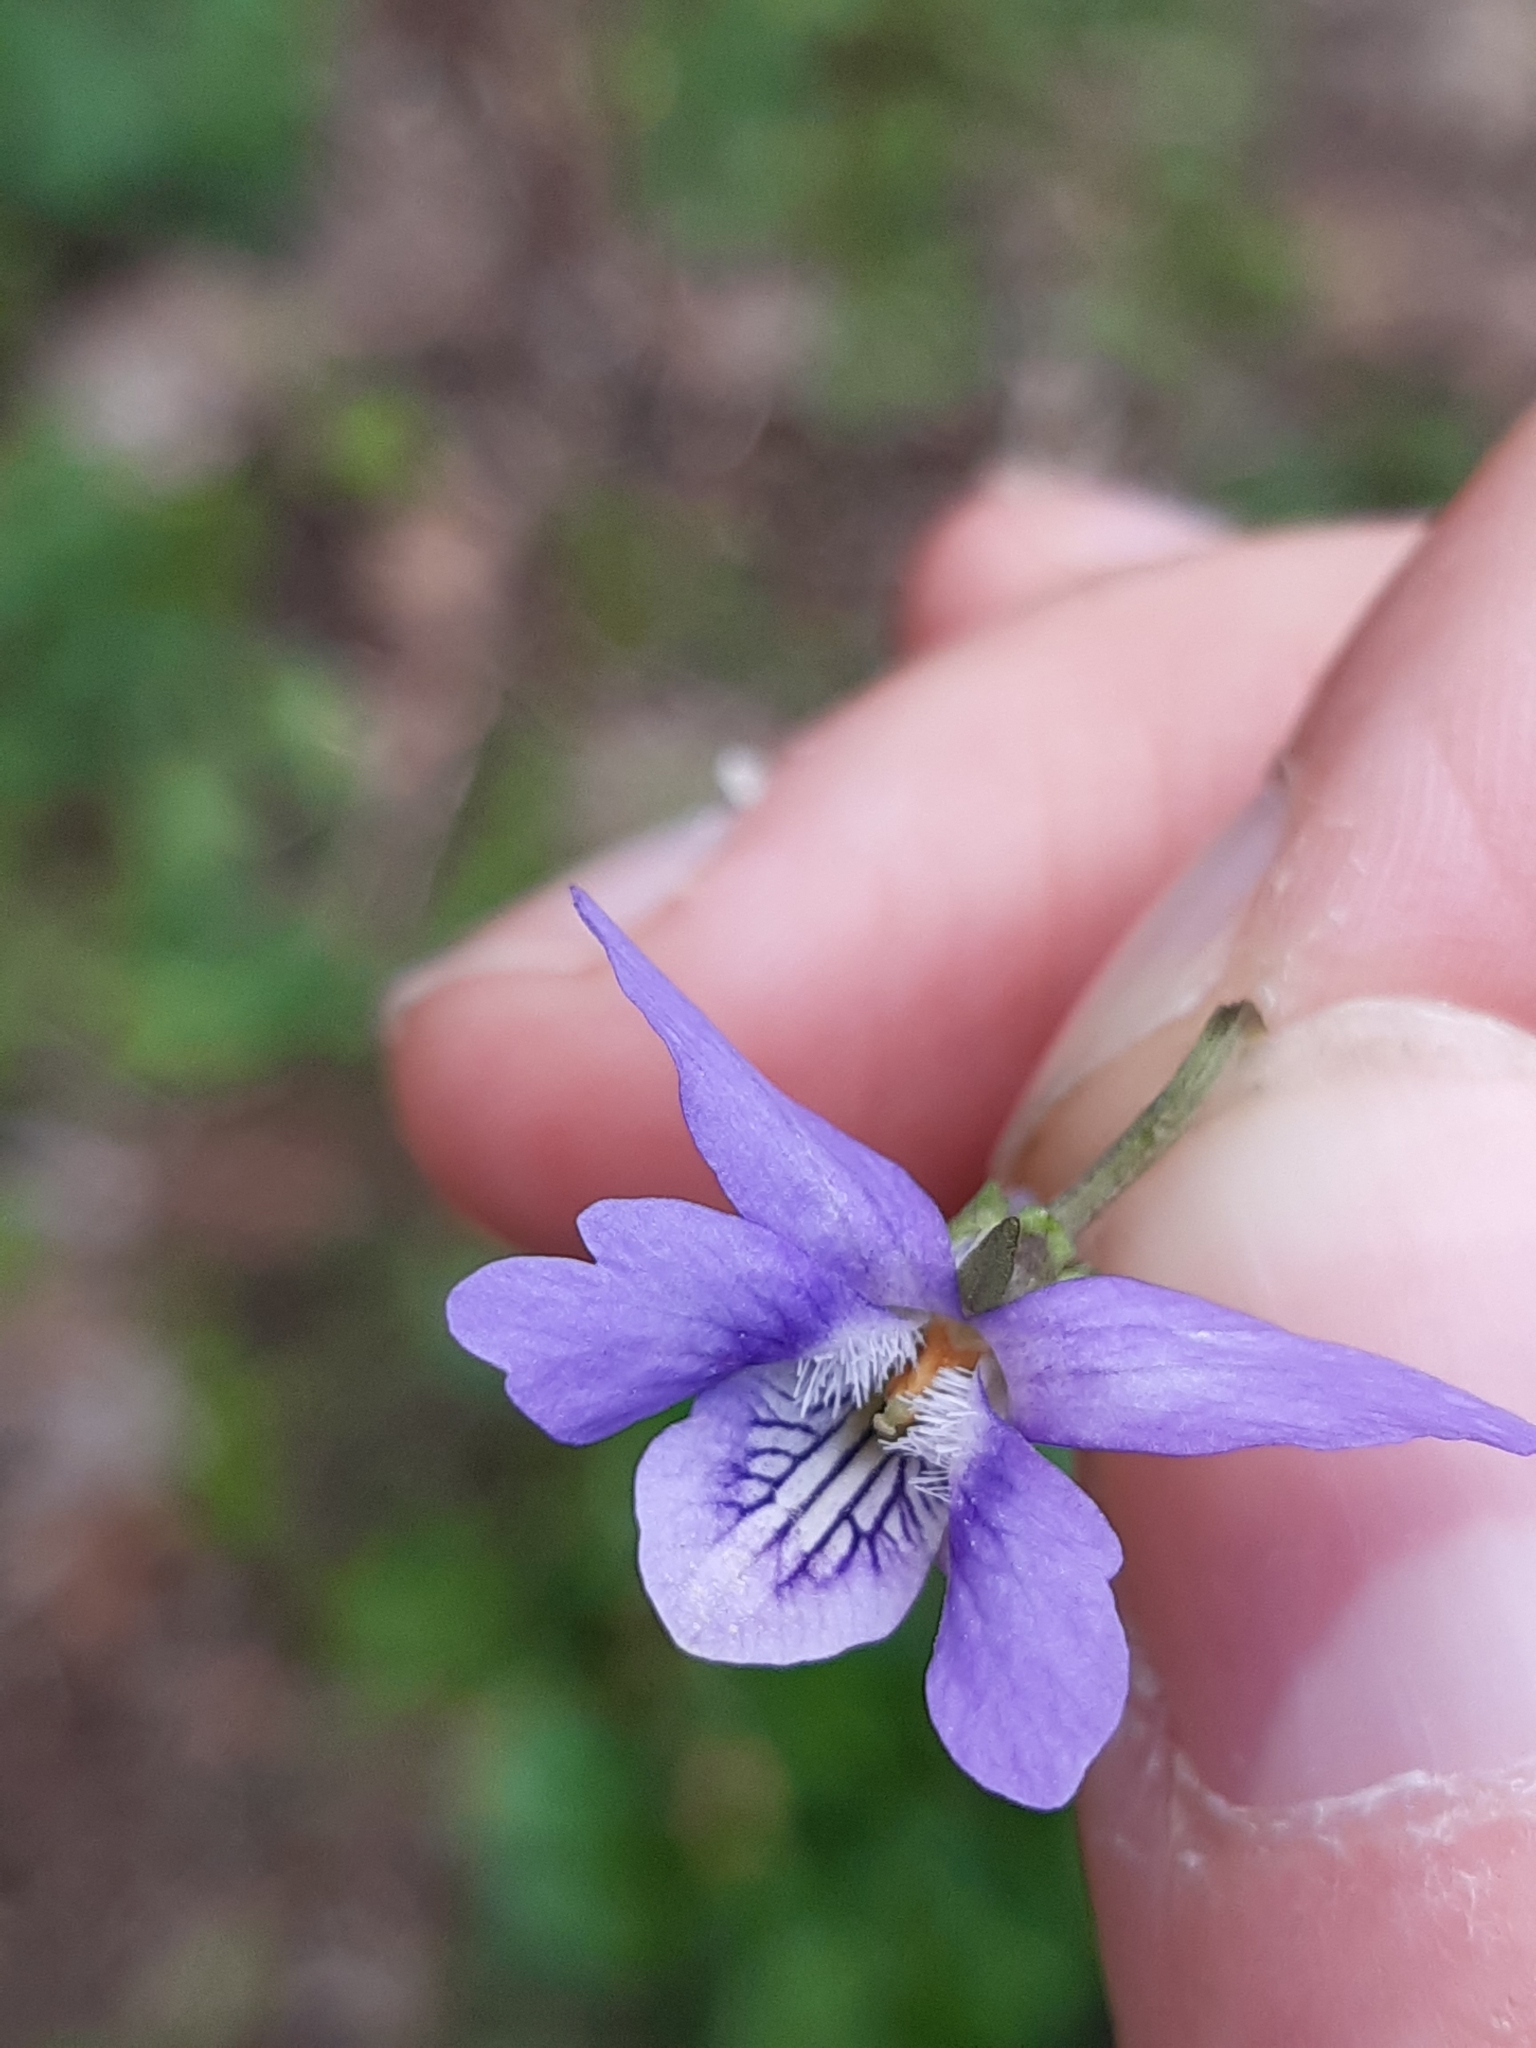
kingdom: Plantae
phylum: Tracheophyta
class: Magnoliopsida
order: Malpighiales
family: Violaceae
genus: Viola
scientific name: Viola riviniana
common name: Common dog-violet
